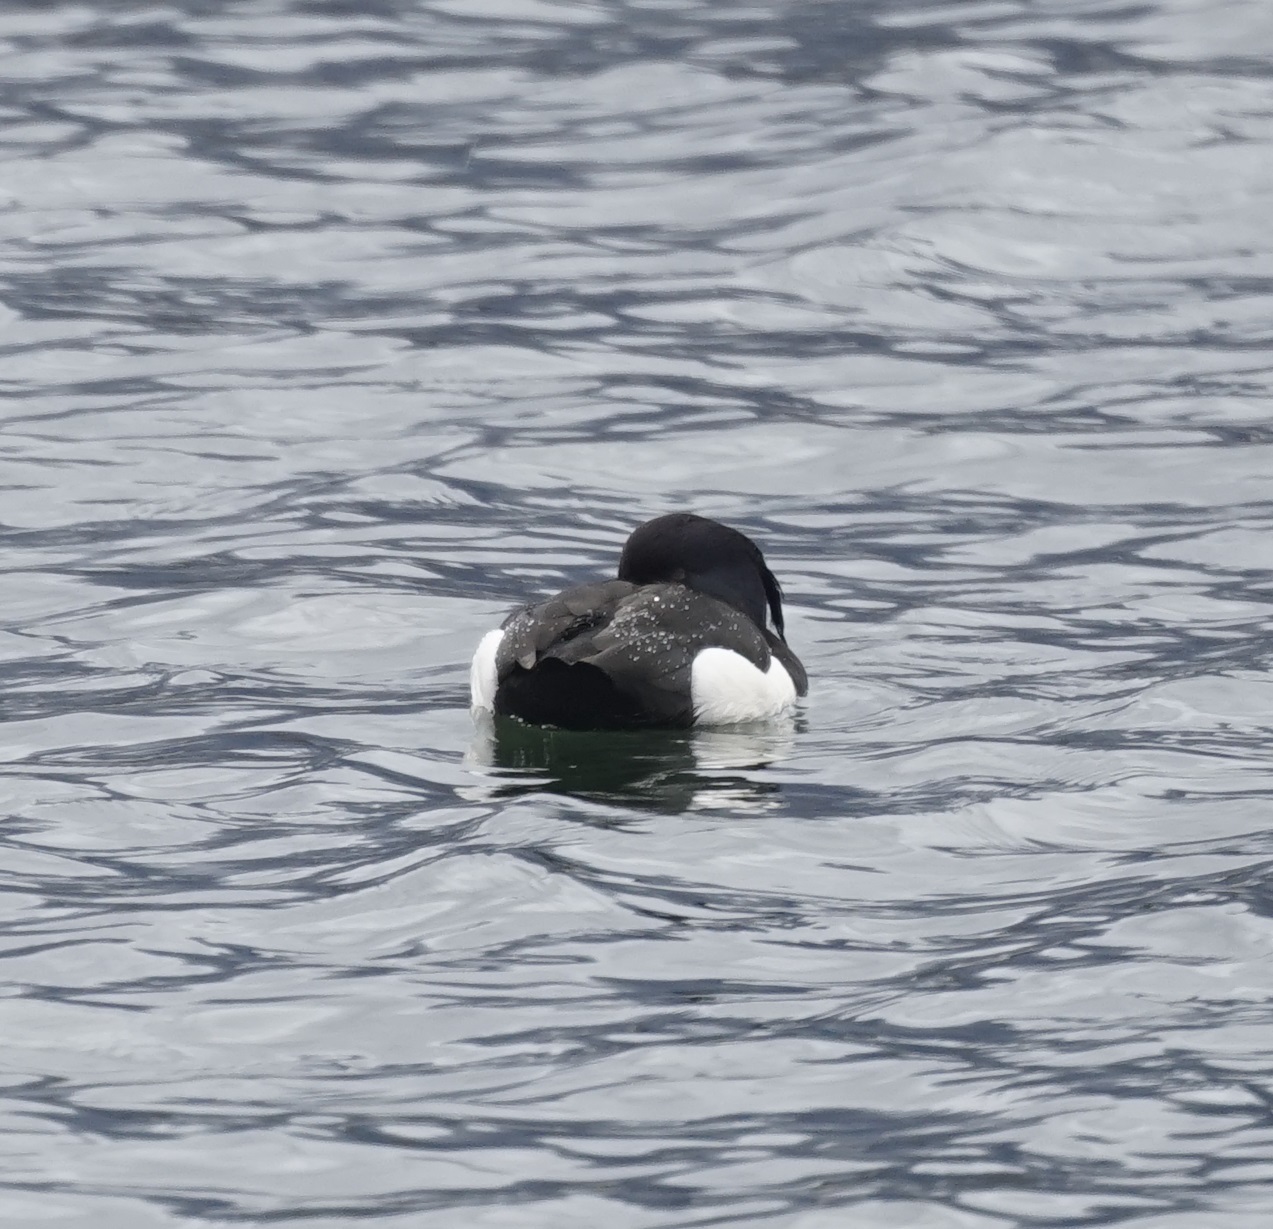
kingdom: Animalia
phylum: Chordata
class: Aves
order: Anseriformes
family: Anatidae
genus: Aythya
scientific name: Aythya fuligula
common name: Tufted duck
